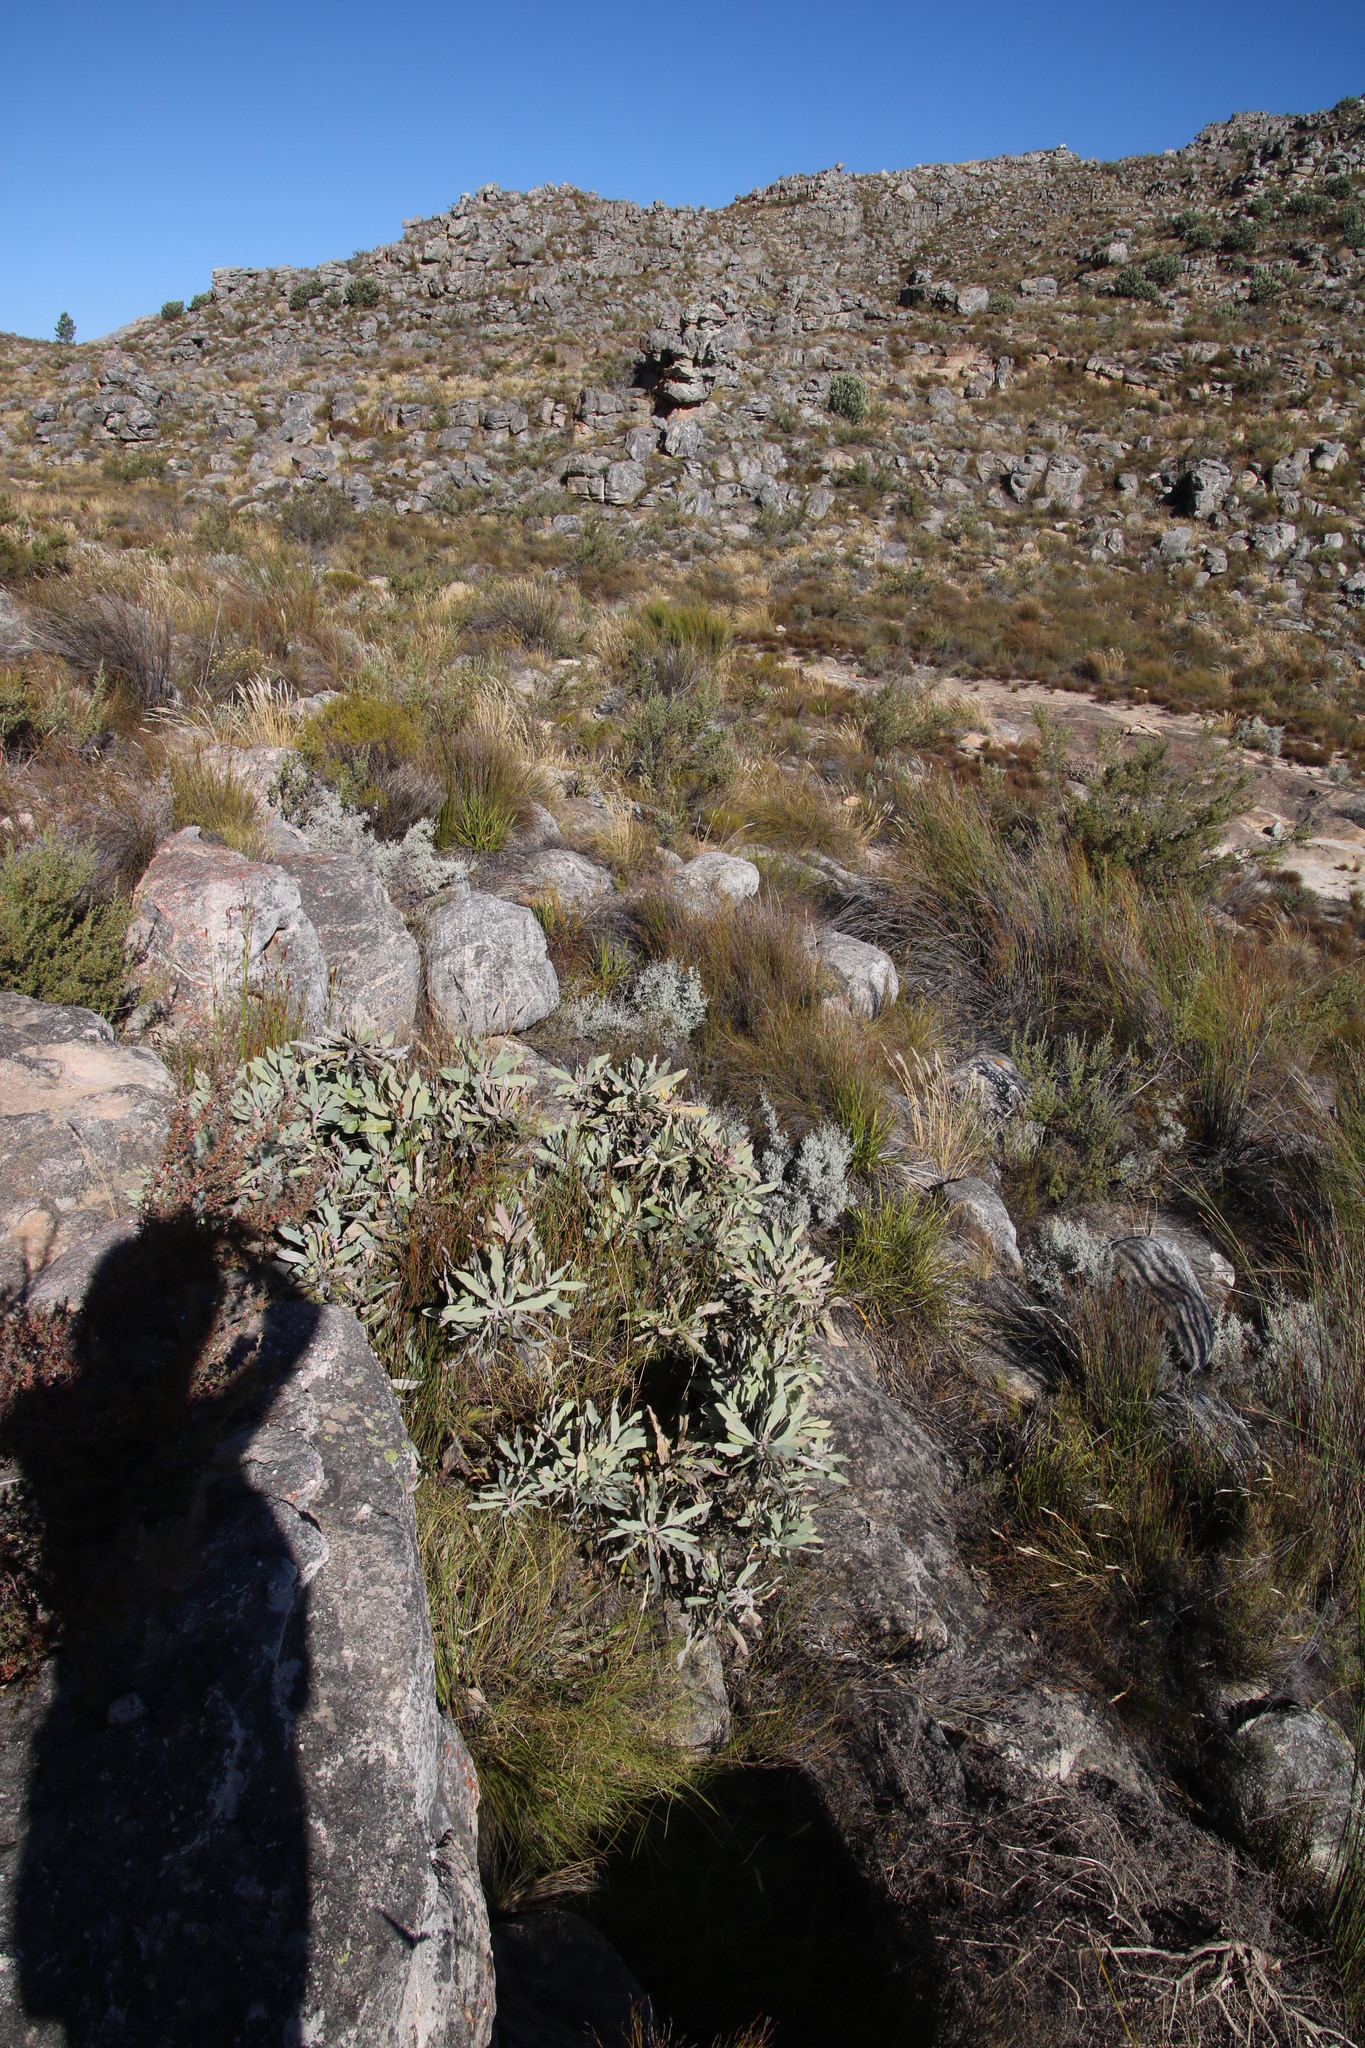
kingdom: Plantae
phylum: Tracheophyta
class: Magnoliopsida
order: Proteales
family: Proteaceae
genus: Protea
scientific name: Protea magnifica
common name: Bearded sugarbush
